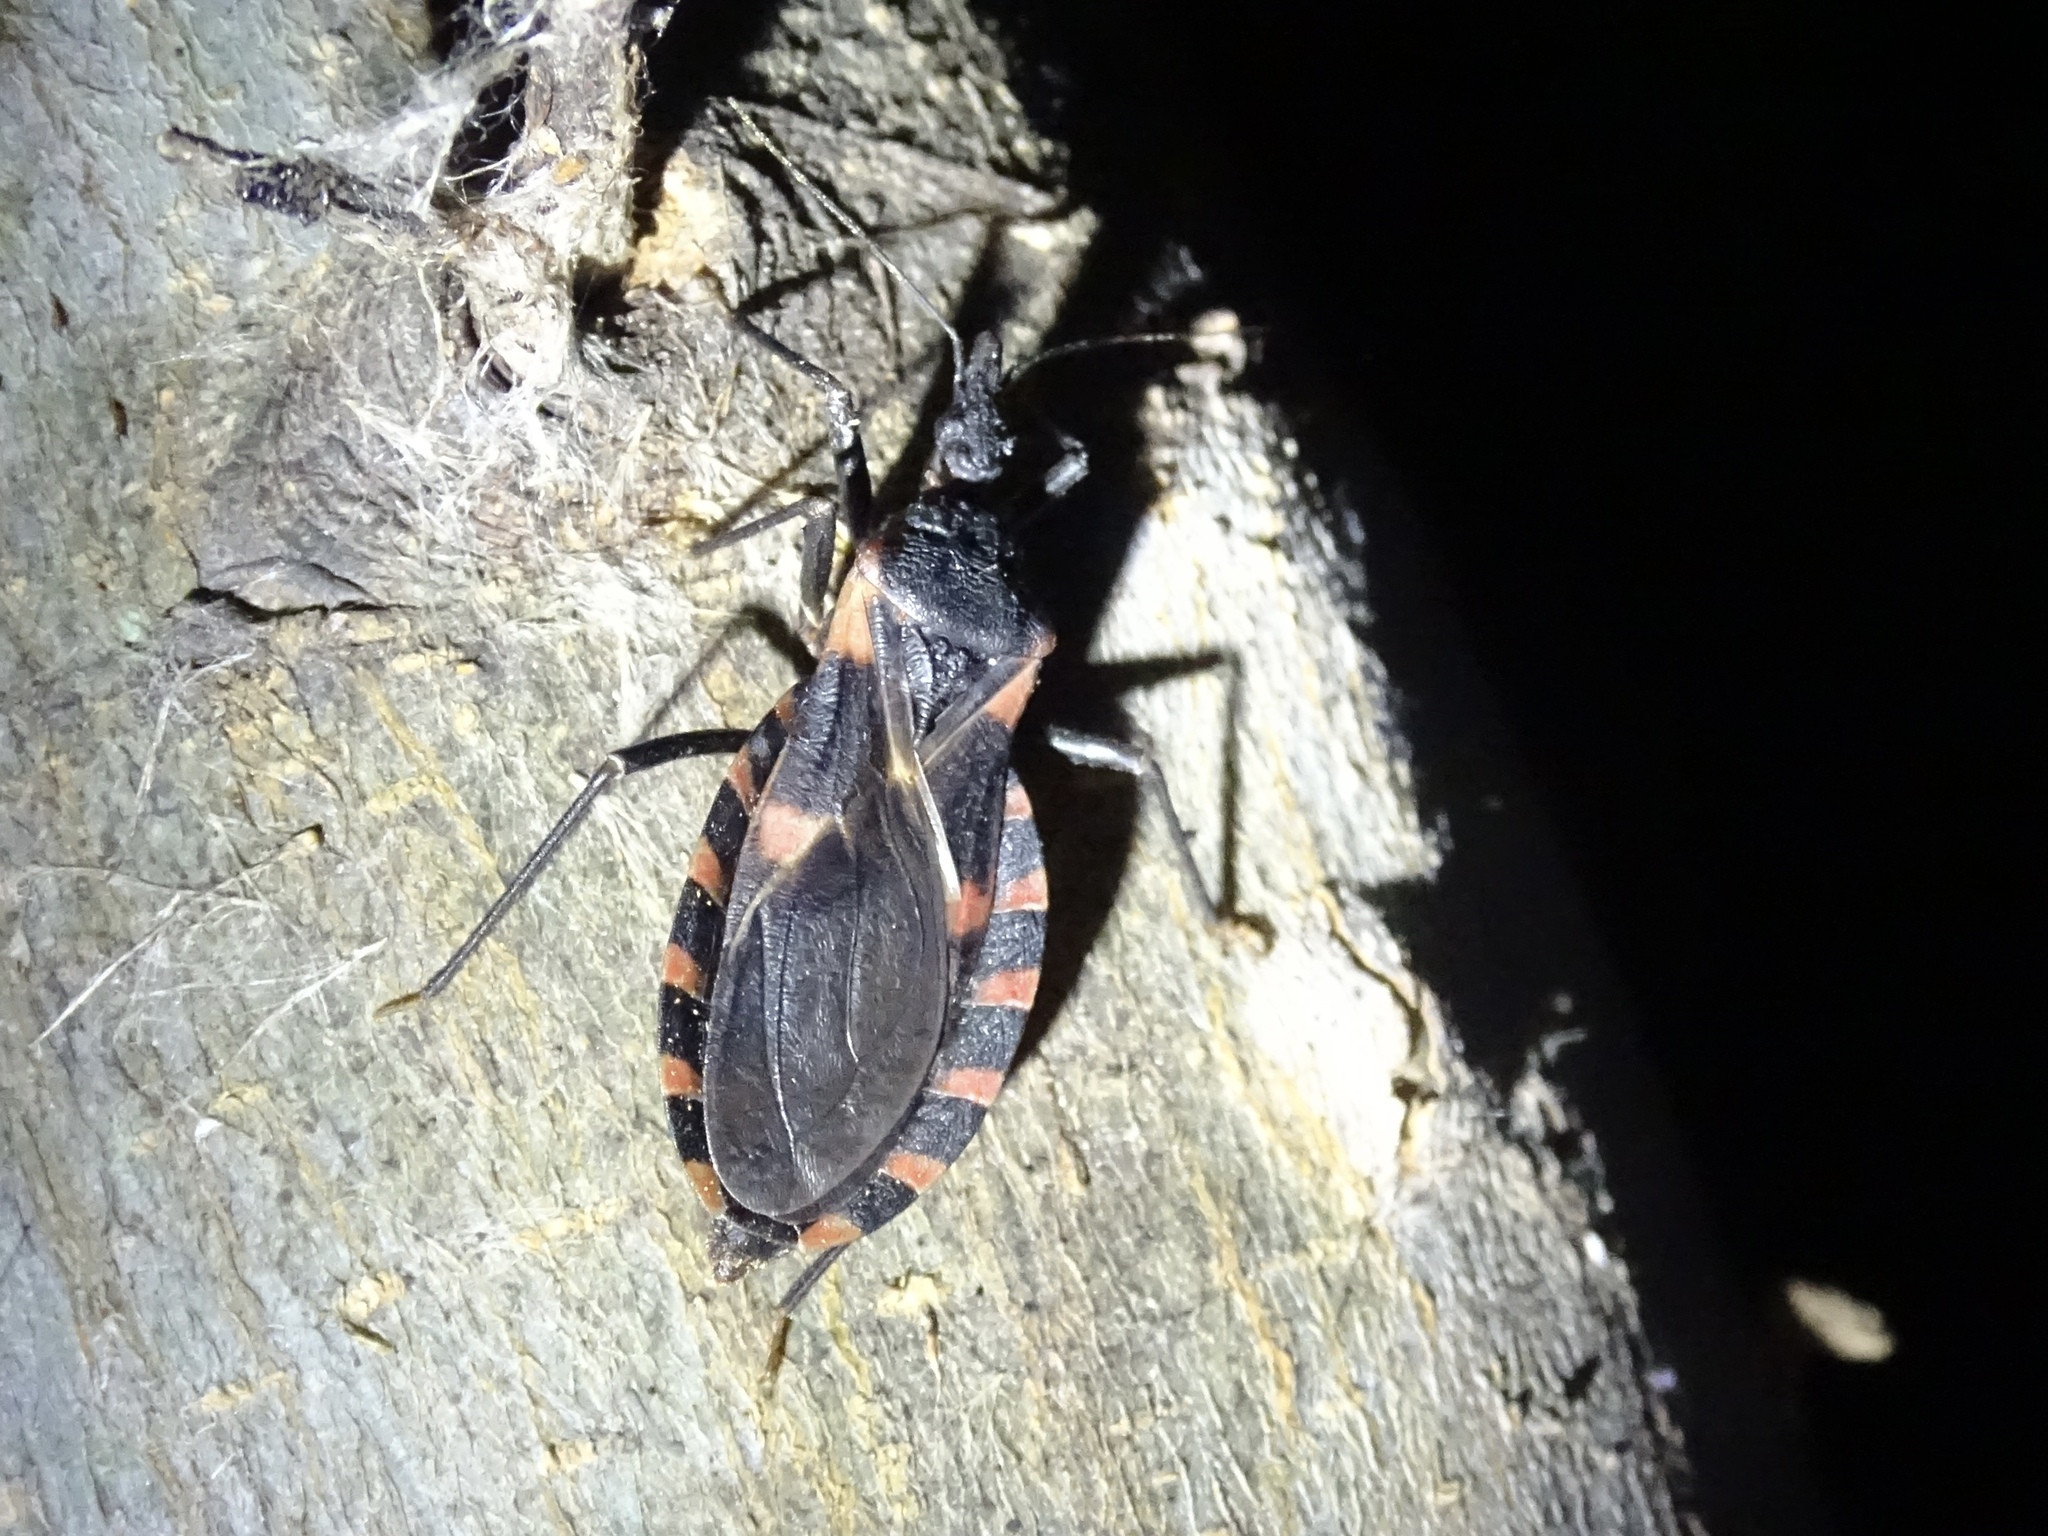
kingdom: Animalia
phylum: Arthropoda
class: Insecta
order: Hemiptera
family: Reduviidae
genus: Triatoma
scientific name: Triatoma sanguisuga
